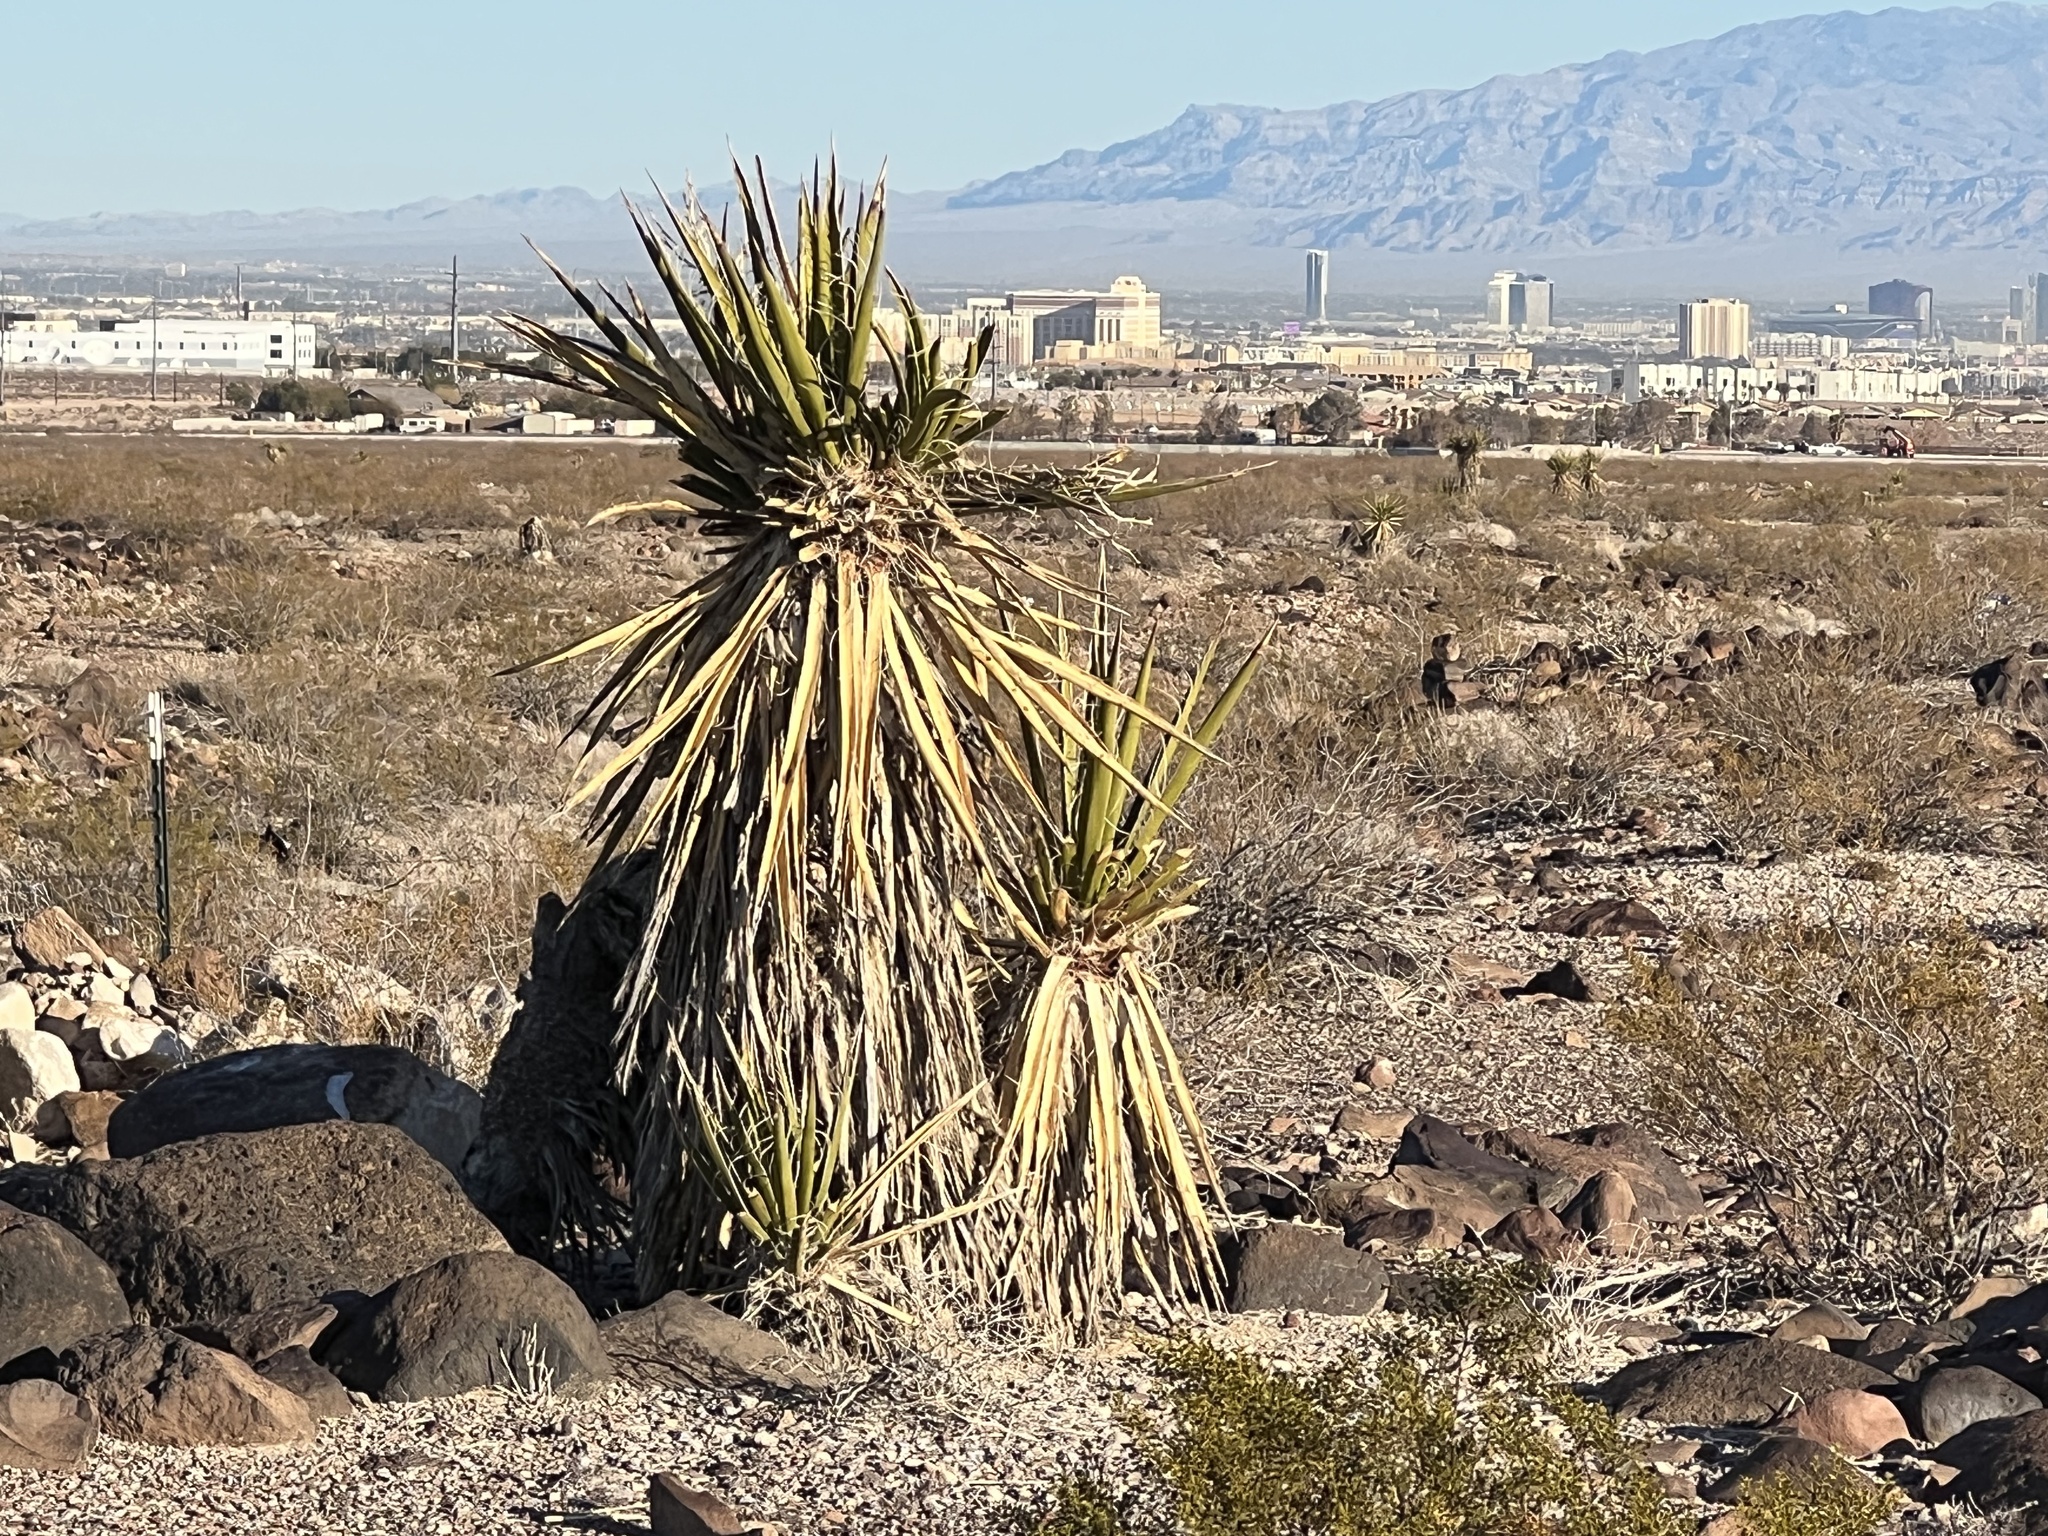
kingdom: Plantae
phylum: Tracheophyta
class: Liliopsida
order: Asparagales
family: Asparagaceae
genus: Yucca
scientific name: Yucca schidigera
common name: Mojave yucca
